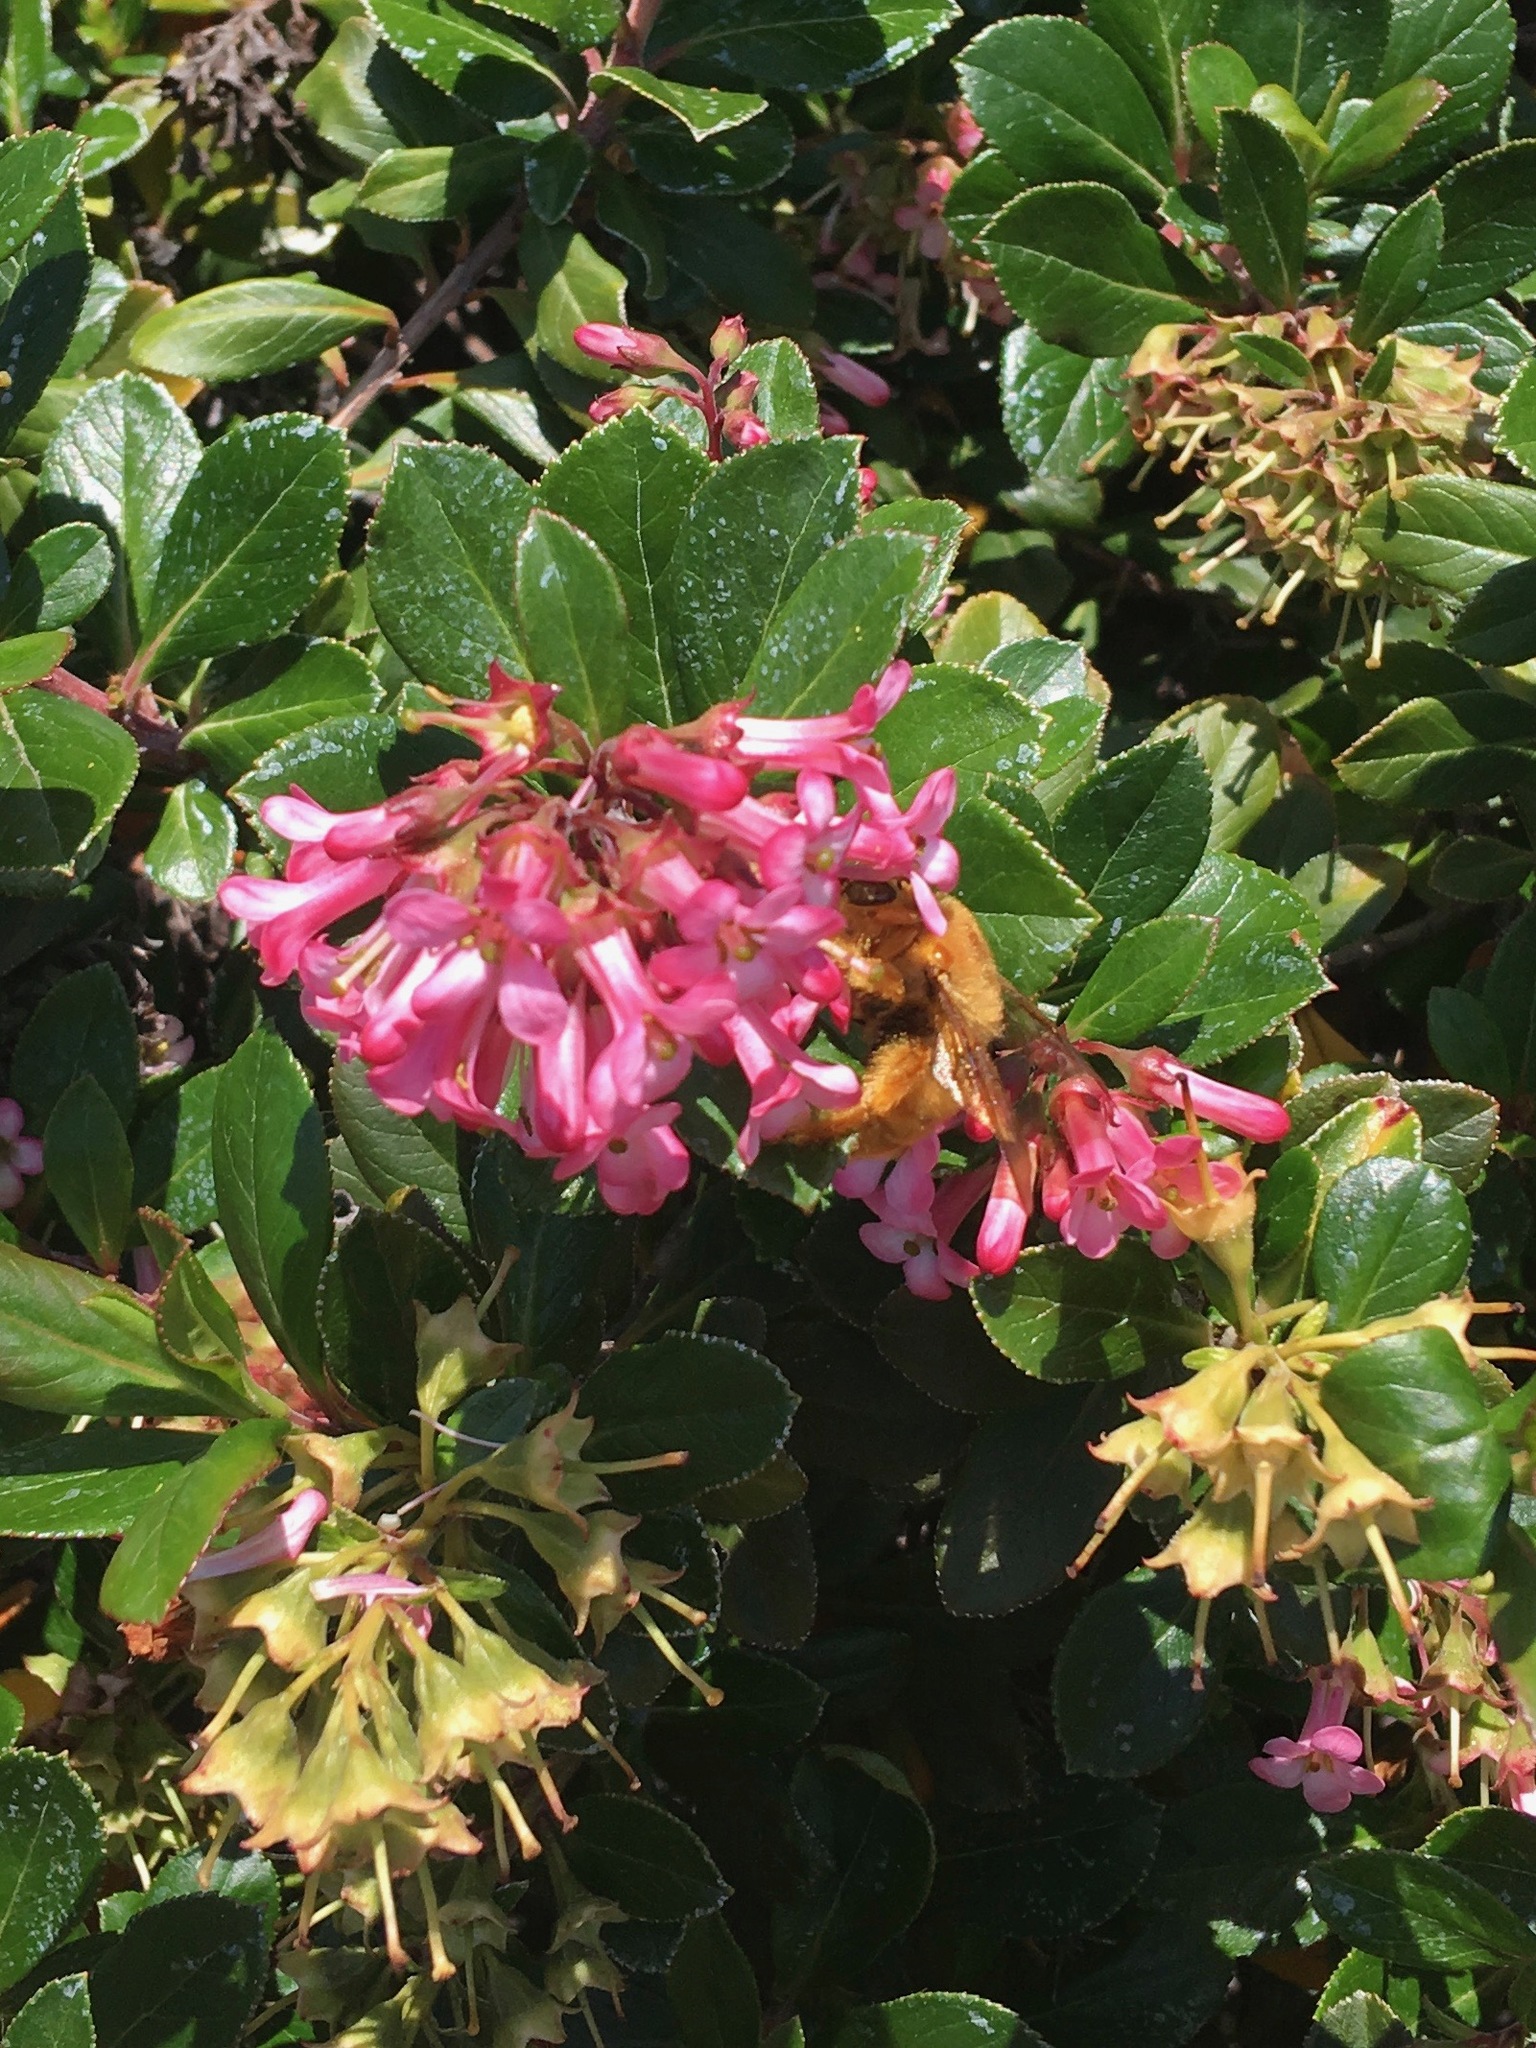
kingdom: Animalia
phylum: Arthropoda
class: Insecta
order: Hymenoptera
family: Apidae
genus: Xylocopa
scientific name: Xylocopa sonorina
